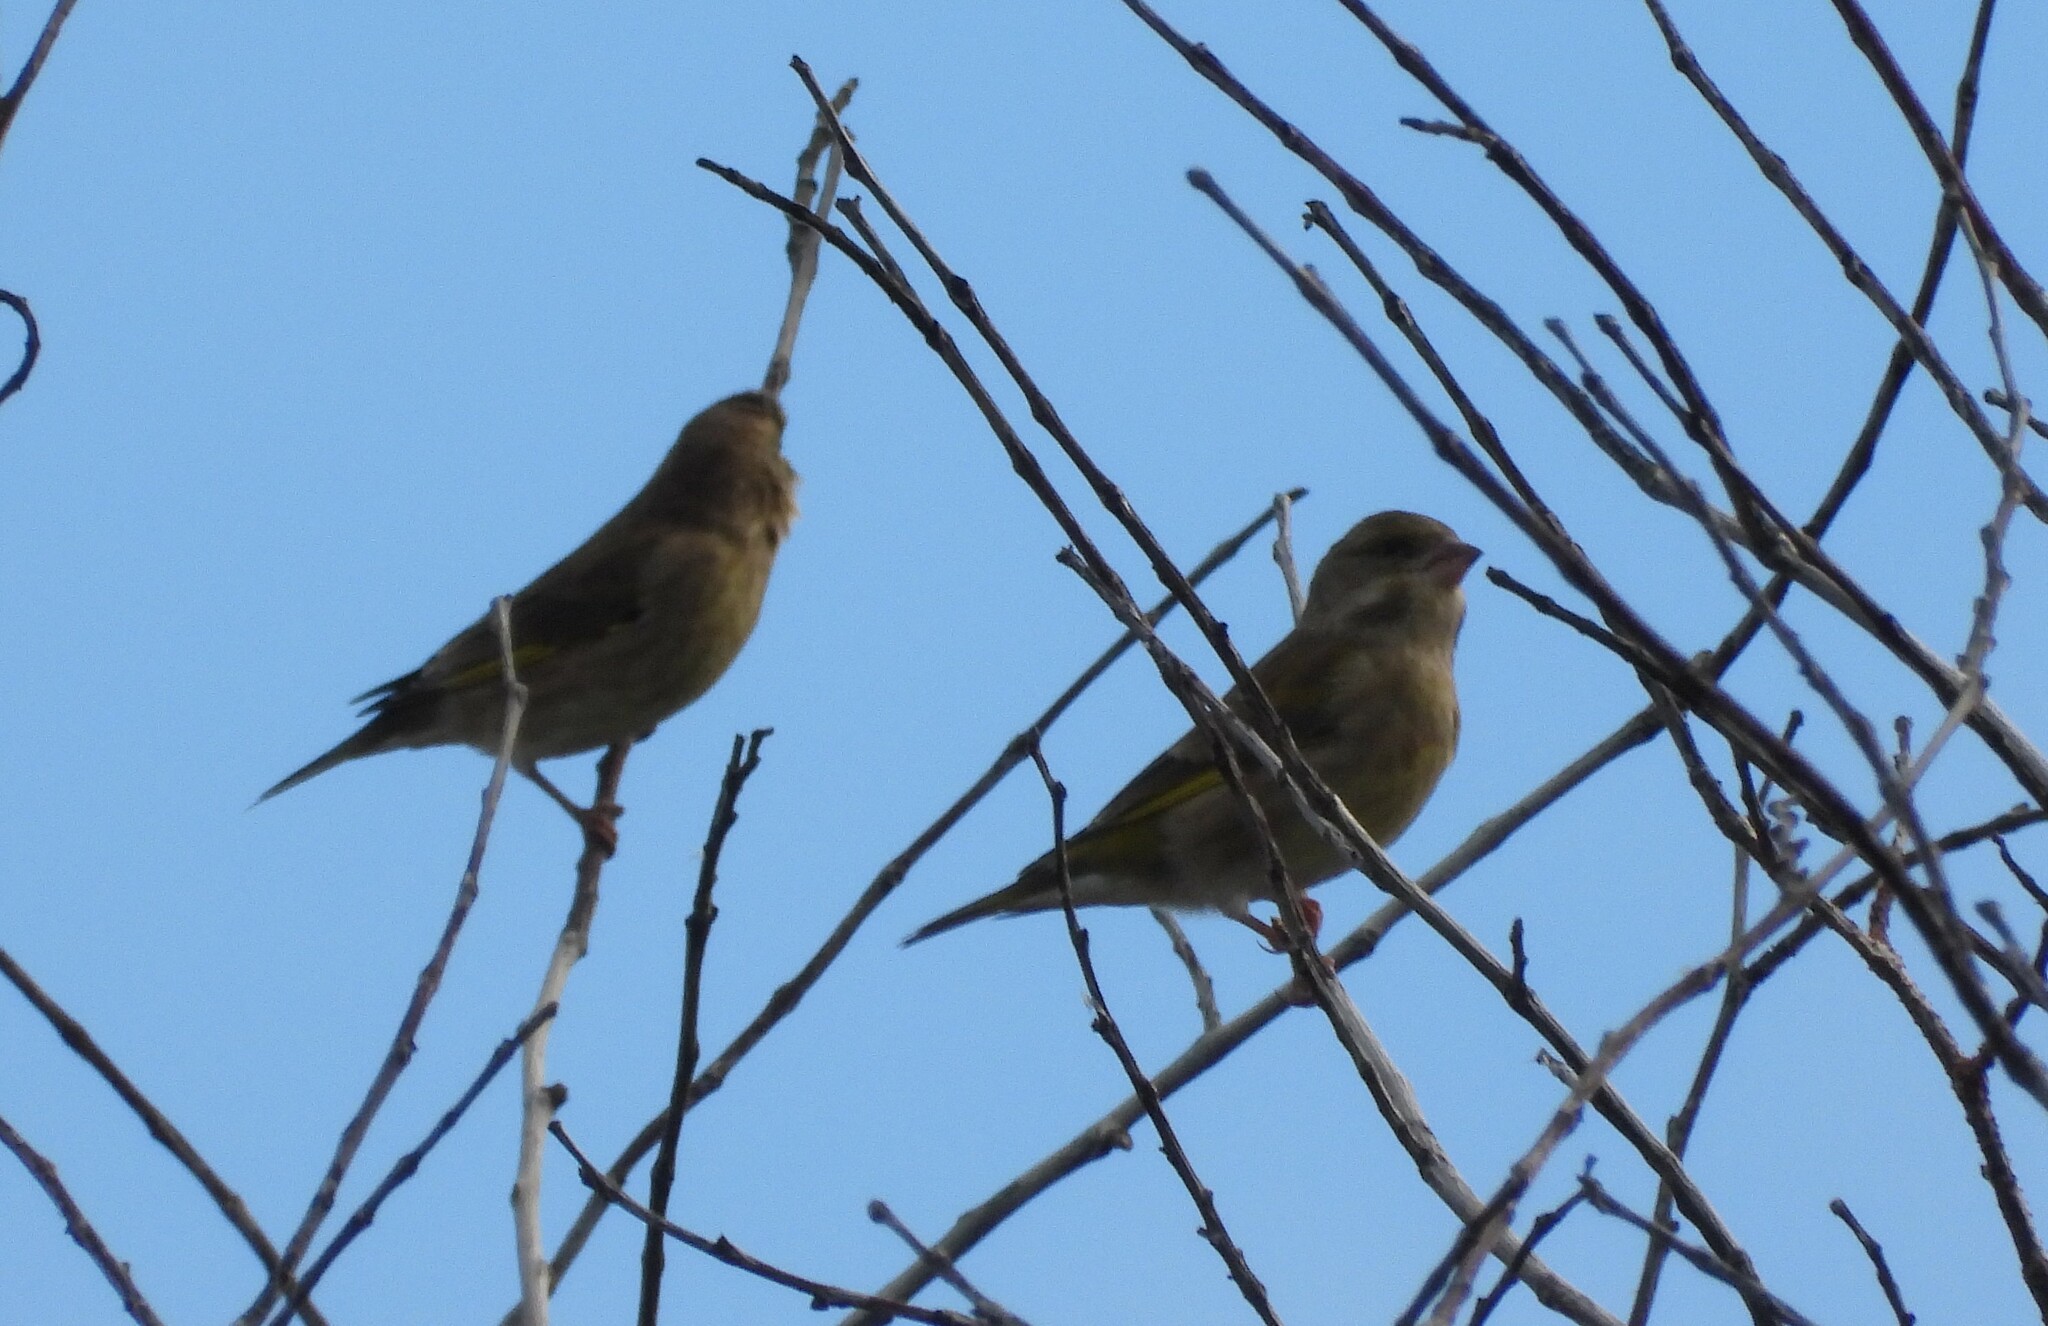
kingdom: Plantae
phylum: Tracheophyta
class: Liliopsida
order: Poales
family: Poaceae
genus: Chloris
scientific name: Chloris chloris
